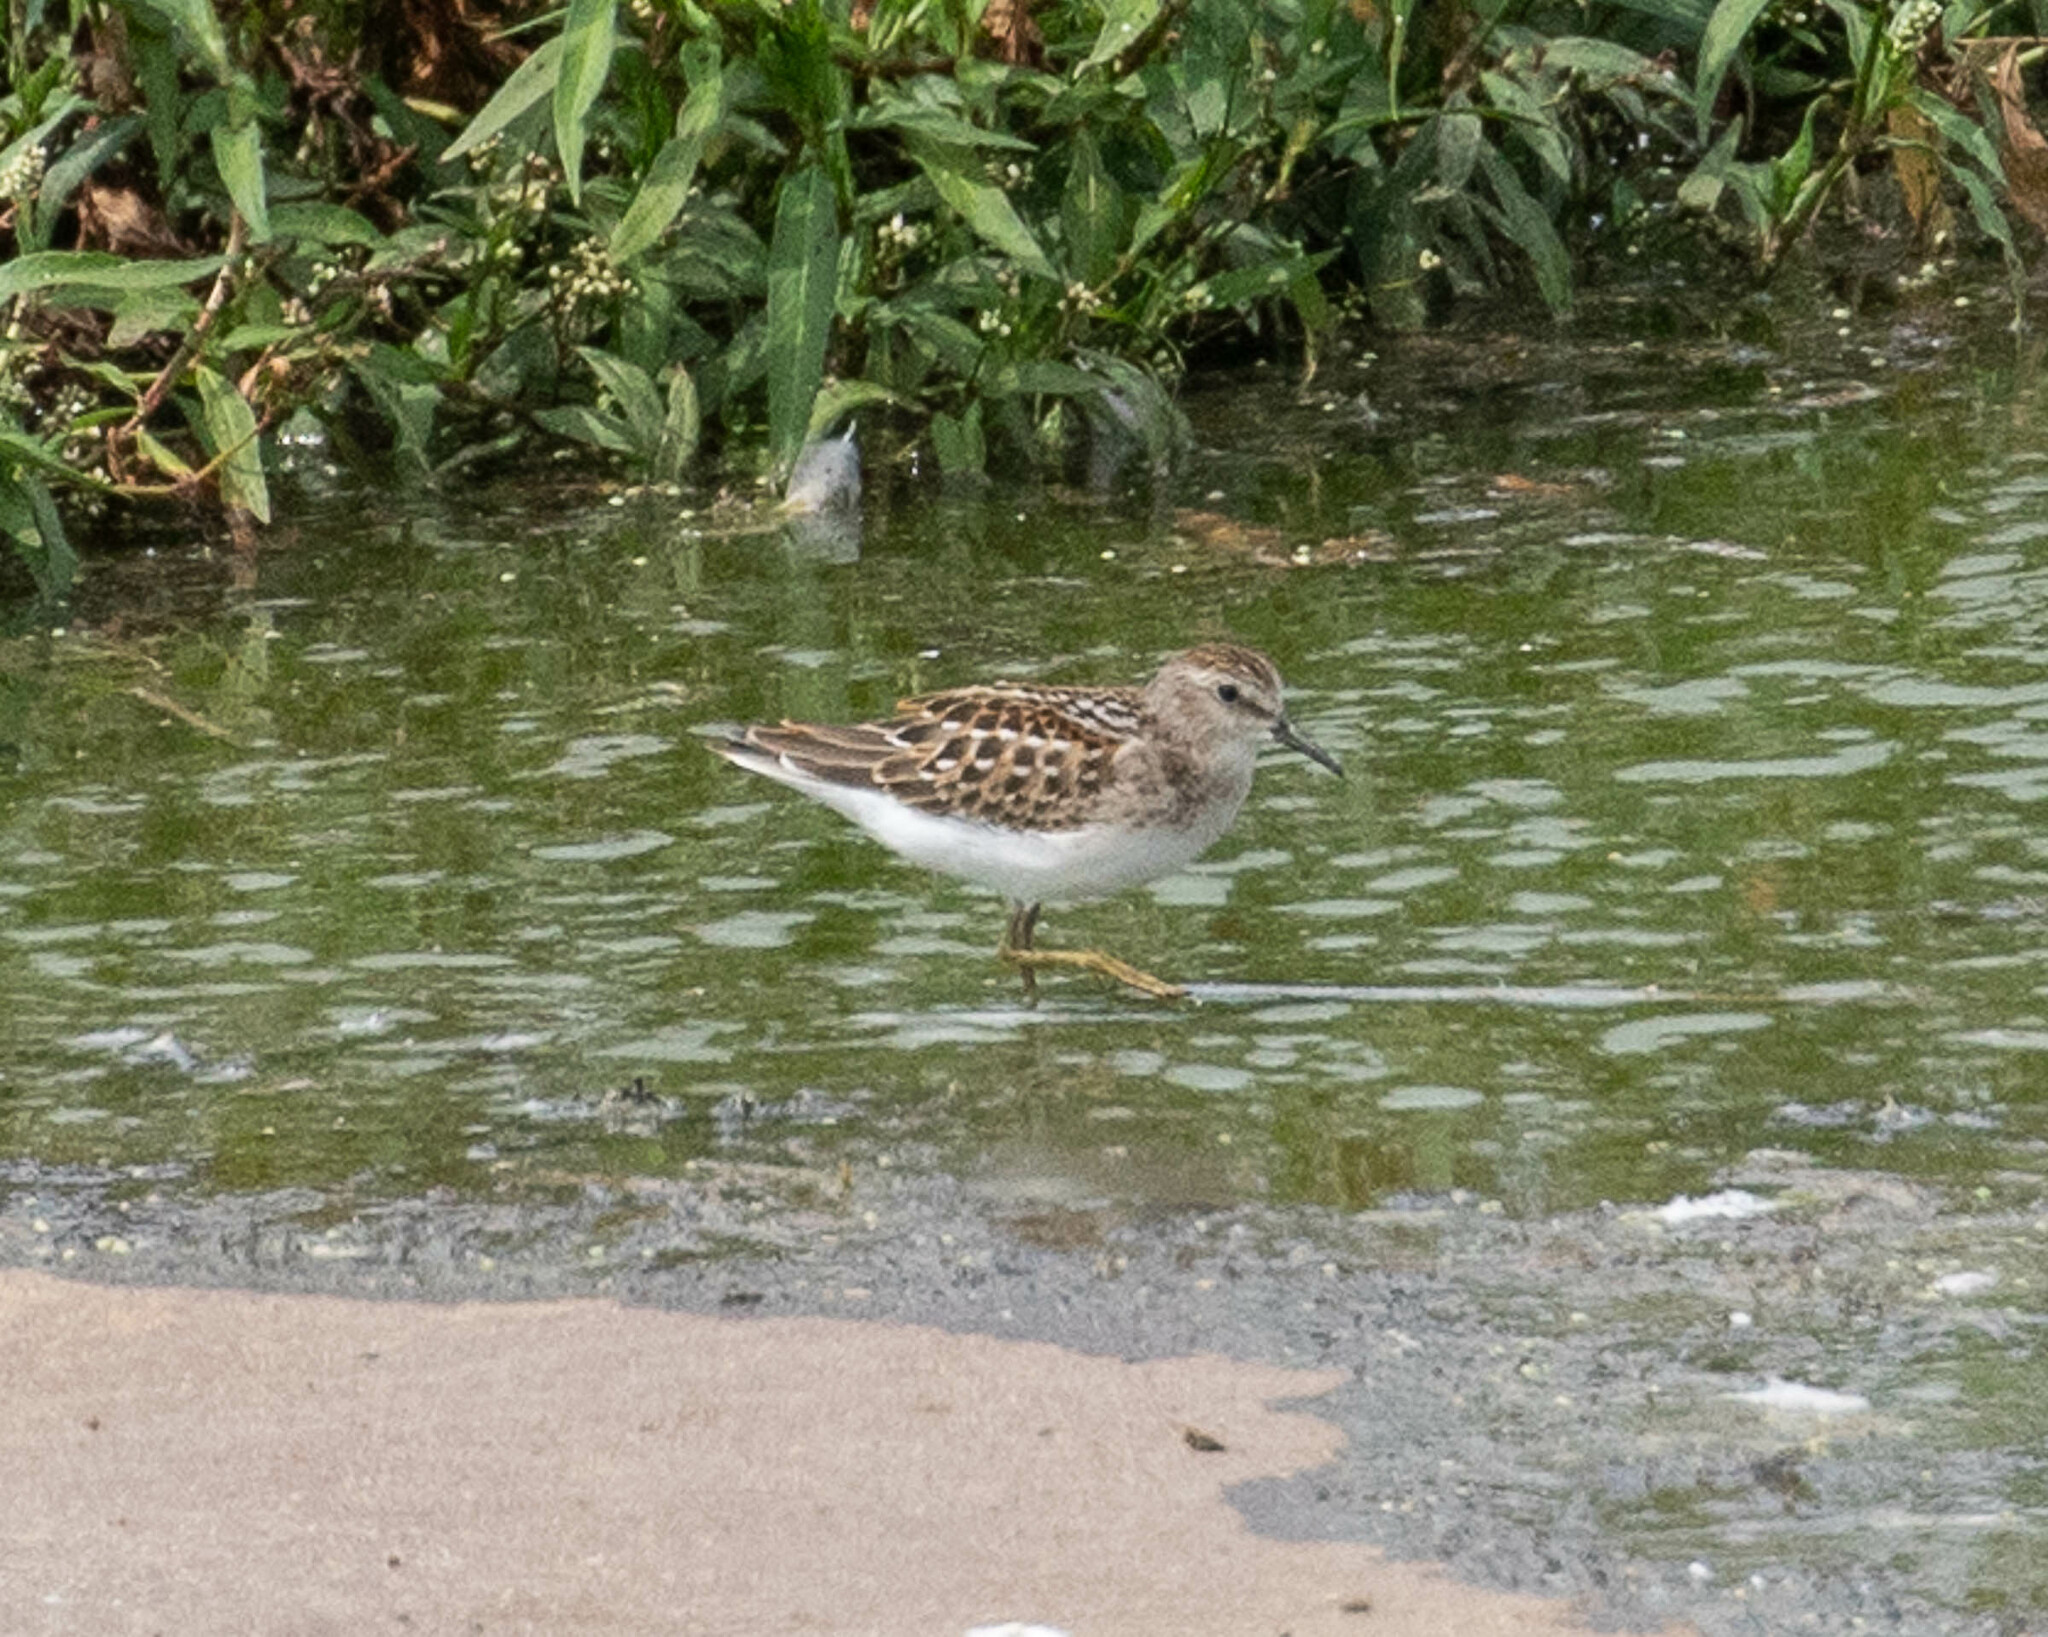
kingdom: Animalia
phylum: Chordata
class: Aves
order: Charadriiformes
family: Scolopacidae
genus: Calidris
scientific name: Calidris minutilla
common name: Least sandpiper
